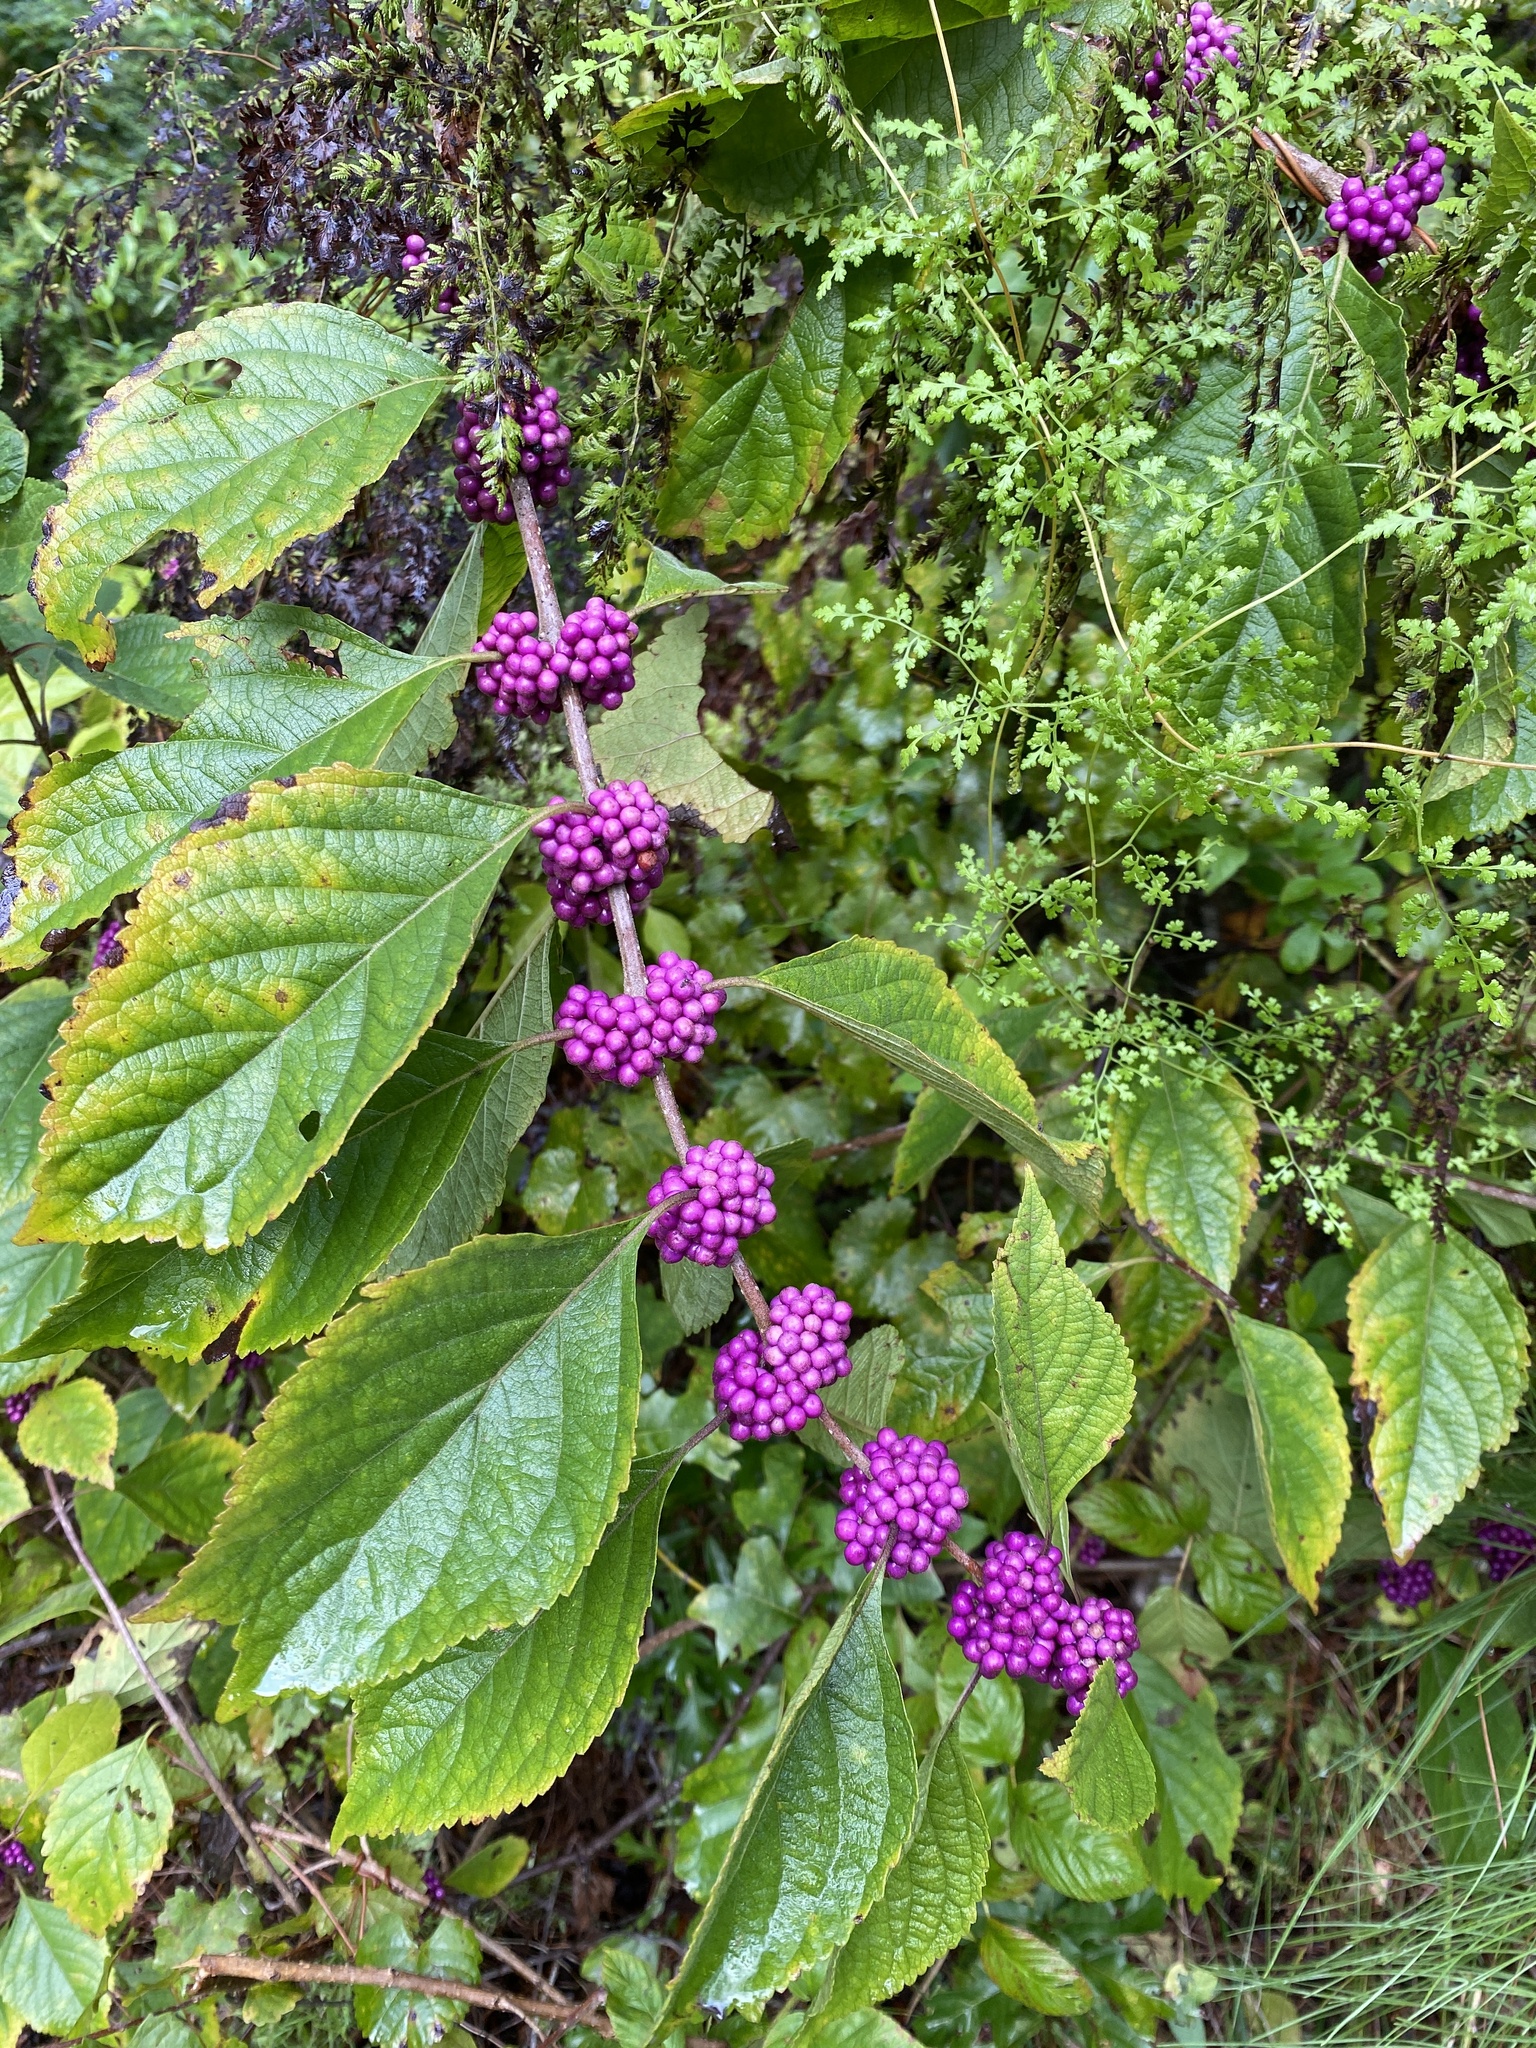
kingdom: Plantae
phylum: Tracheophyta
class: Magnoliopsida
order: Lamiales
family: Lamiaceae
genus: Callicarpa
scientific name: Callicarpa americana
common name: American beautyberry
